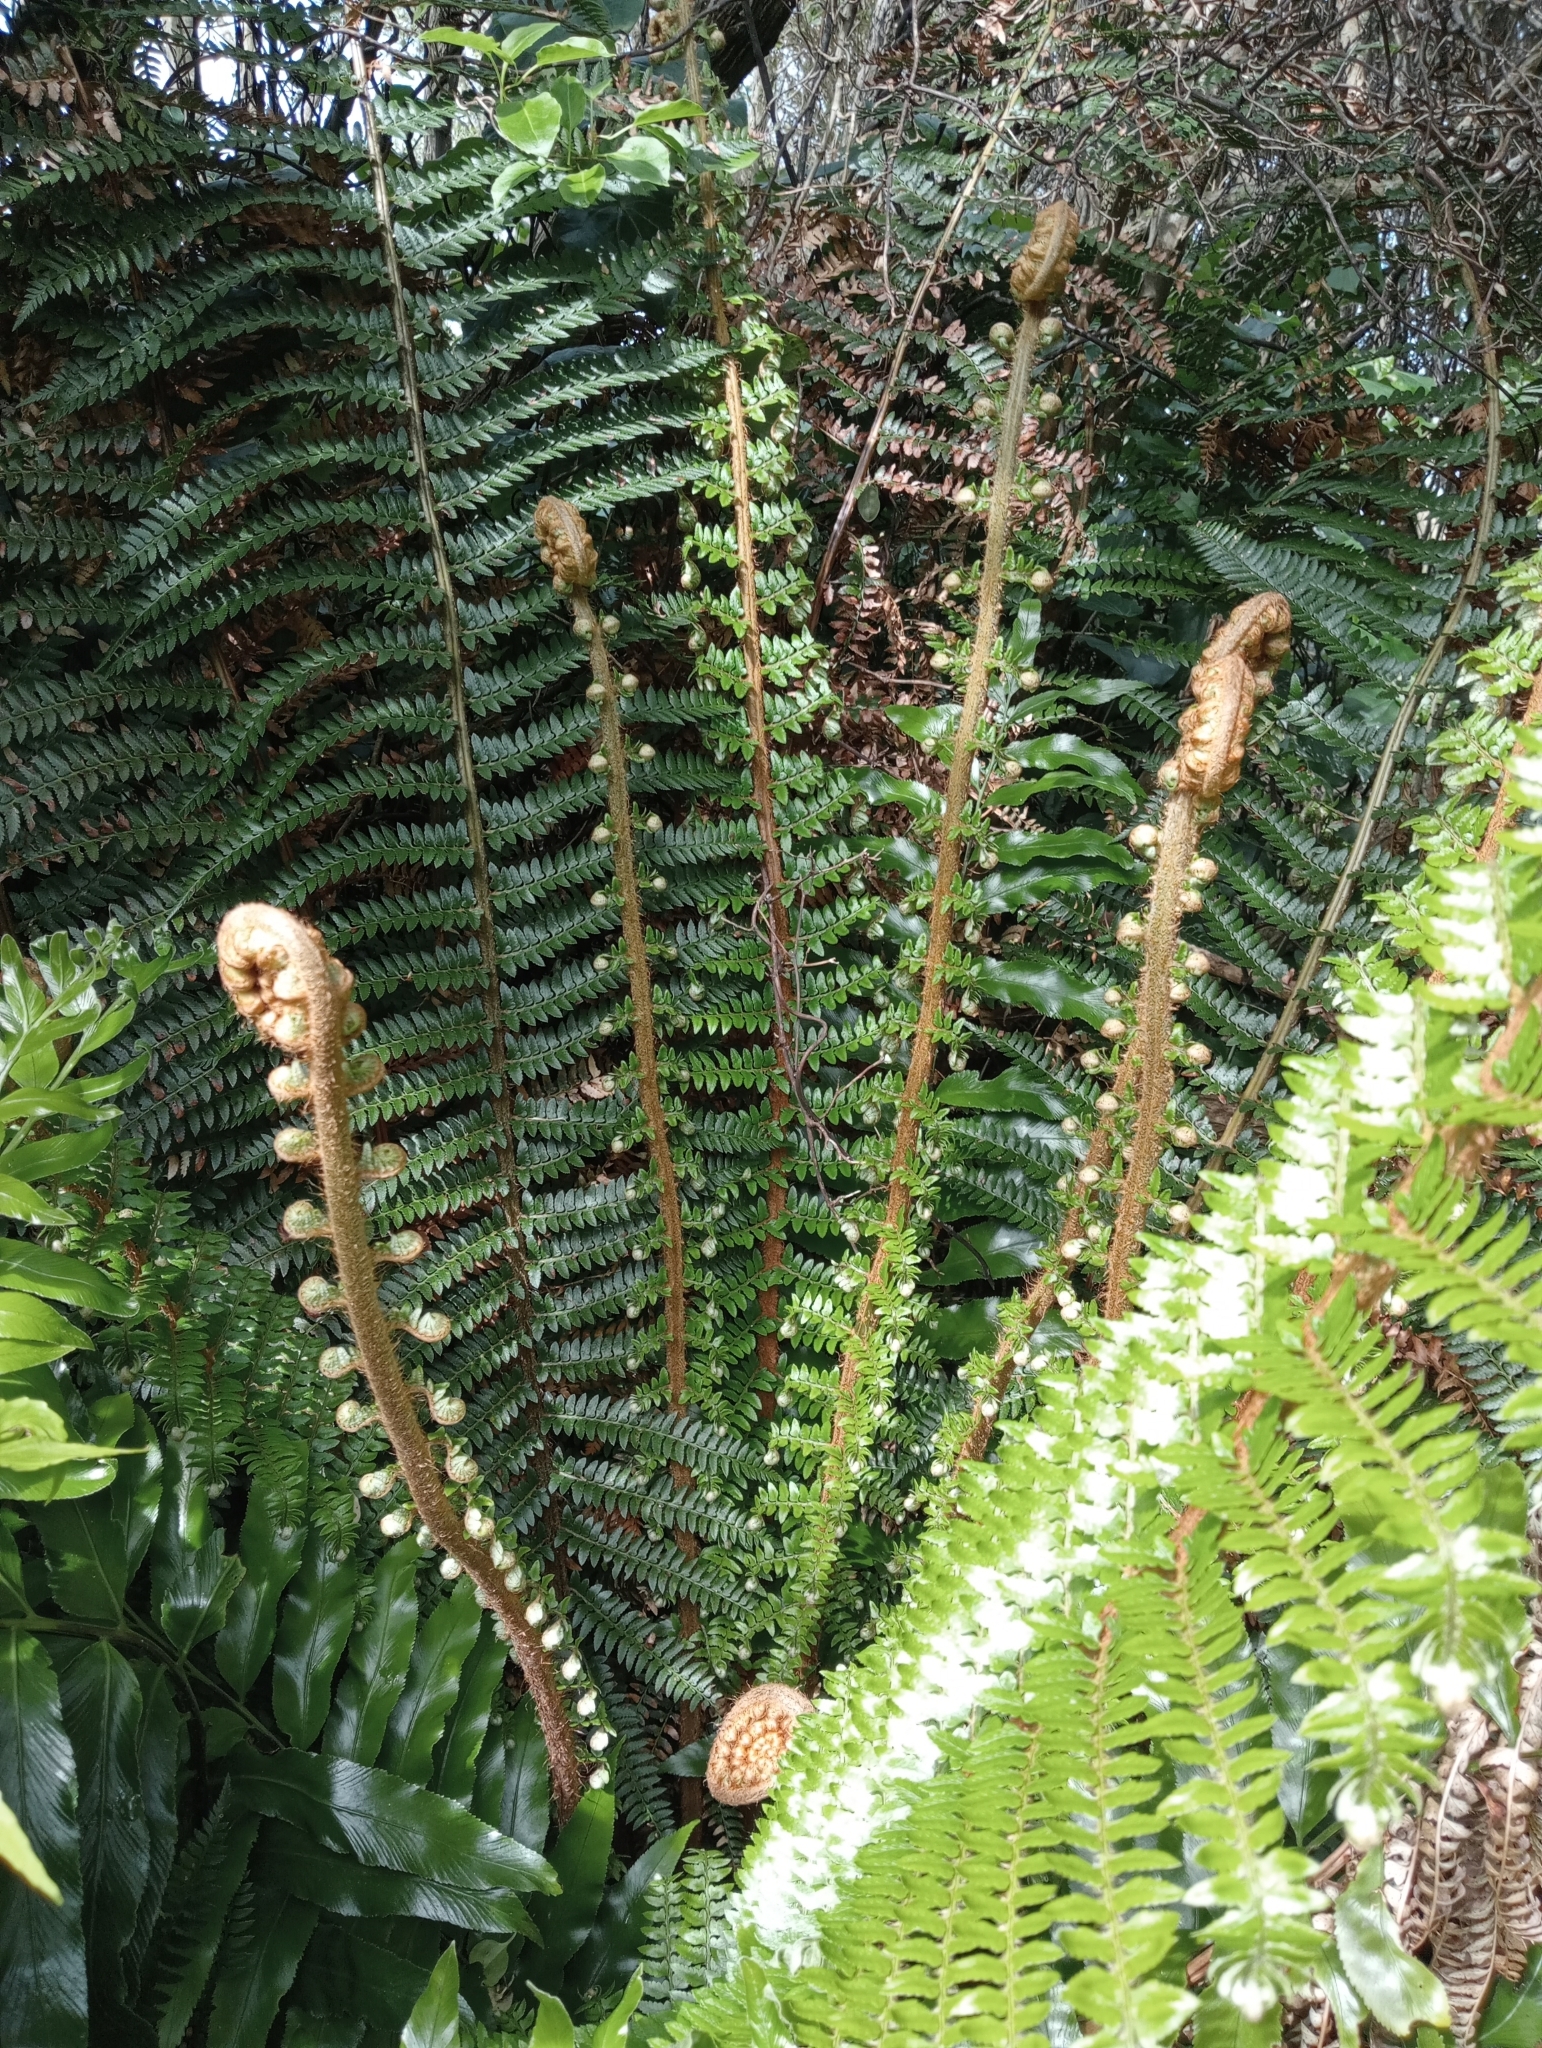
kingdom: Plantae
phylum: Tracheophyta
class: Polypodiopsida
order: Polypodiales
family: Dryopteridaceae
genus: Polystichum
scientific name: Polystichum vestitum
